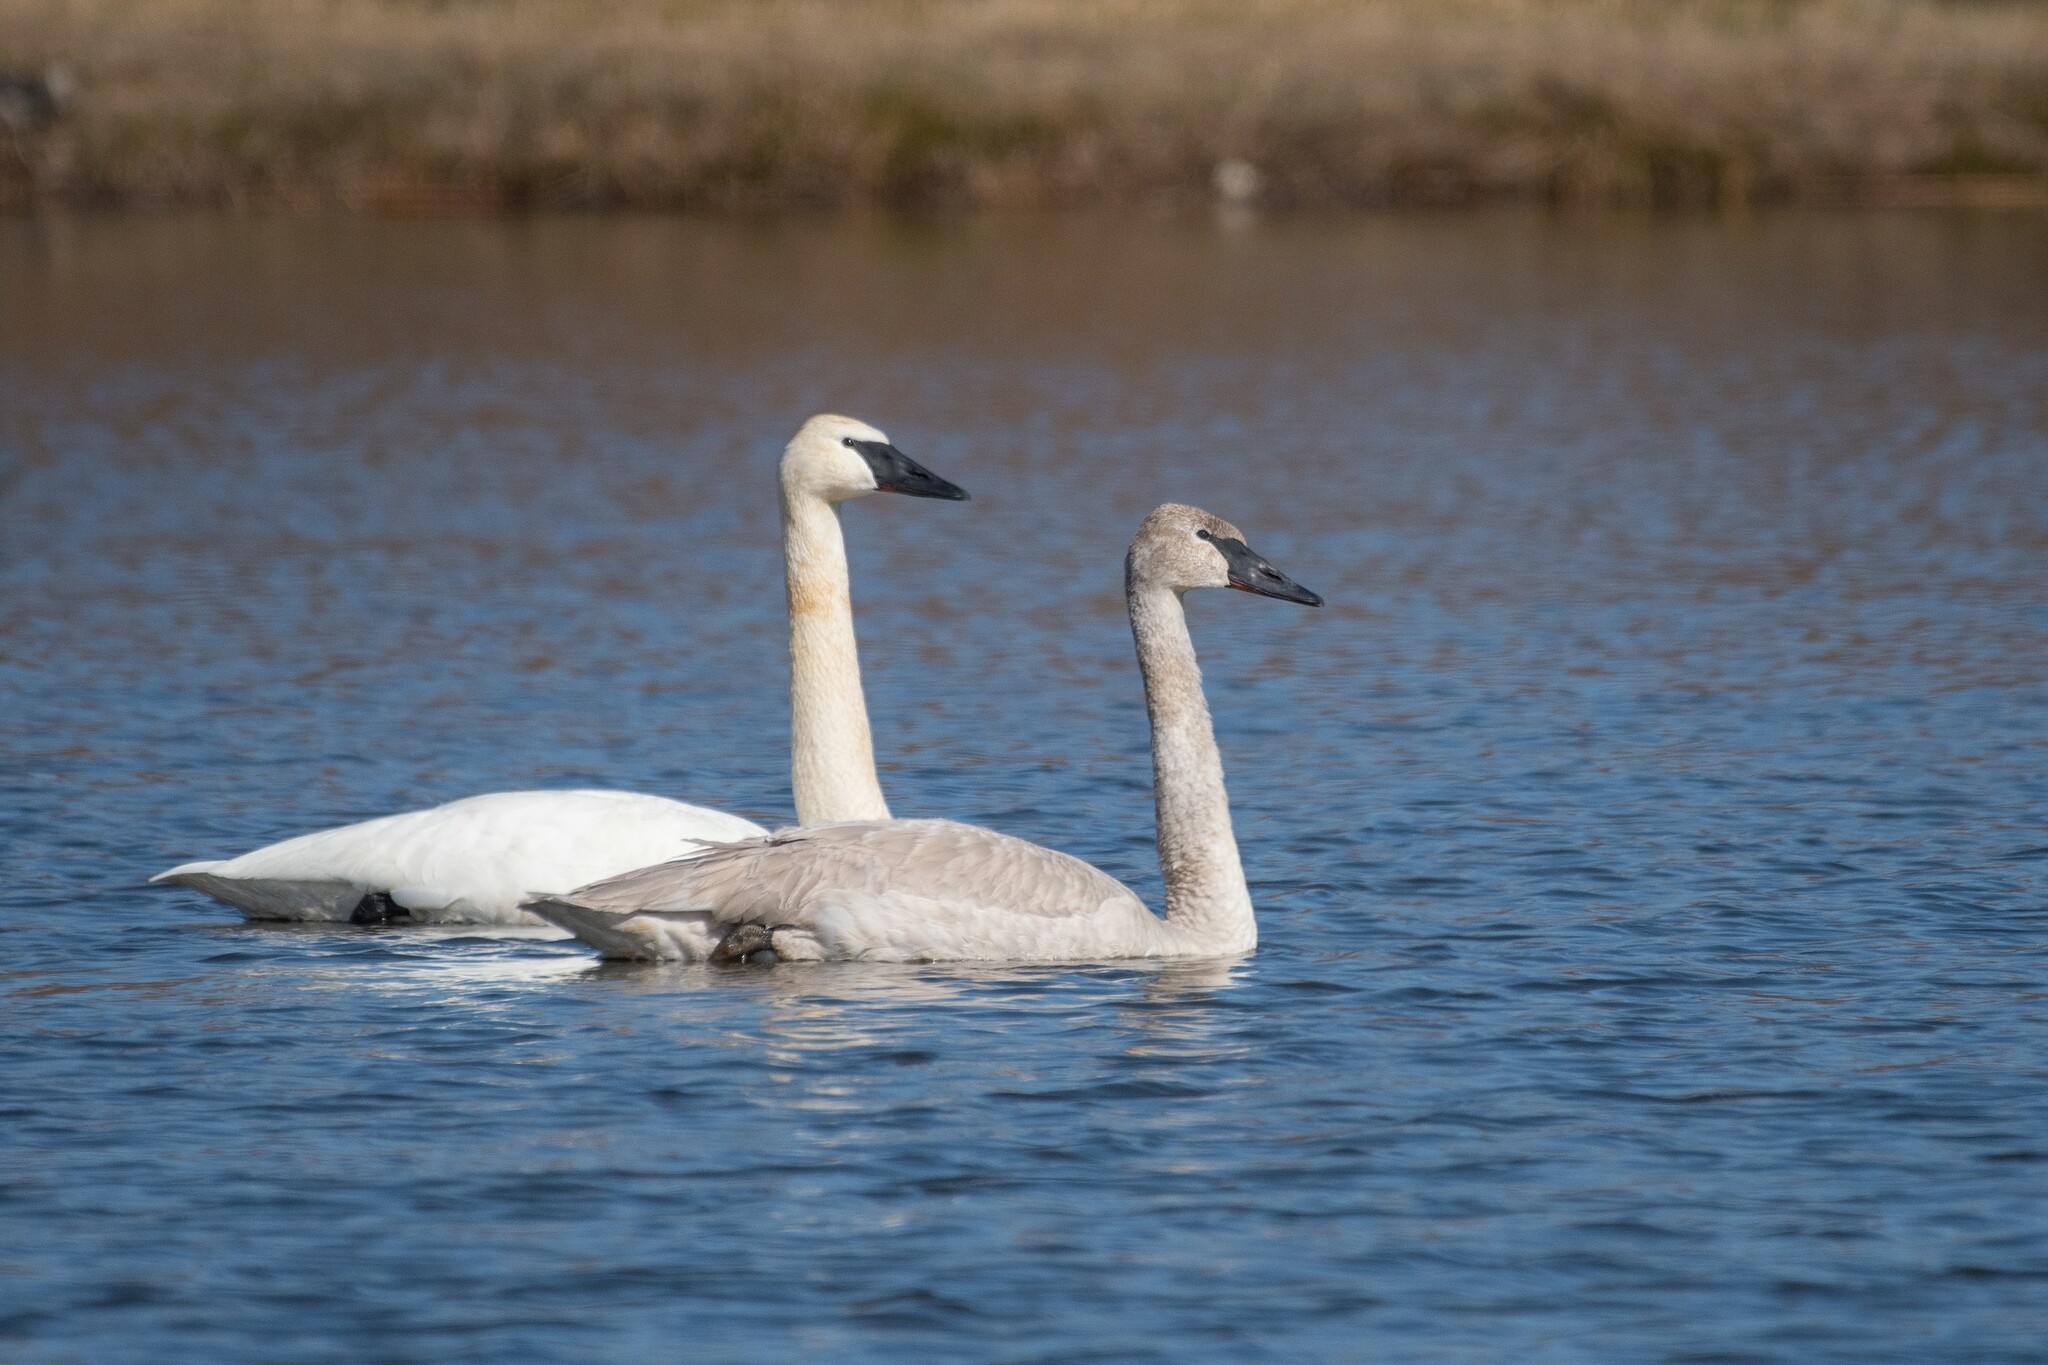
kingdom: Animalia
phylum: Chordata
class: Aves
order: Anseriformes
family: Anatidae
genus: Cygnus
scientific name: Cygnus buccinator
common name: Trumpeter swan
